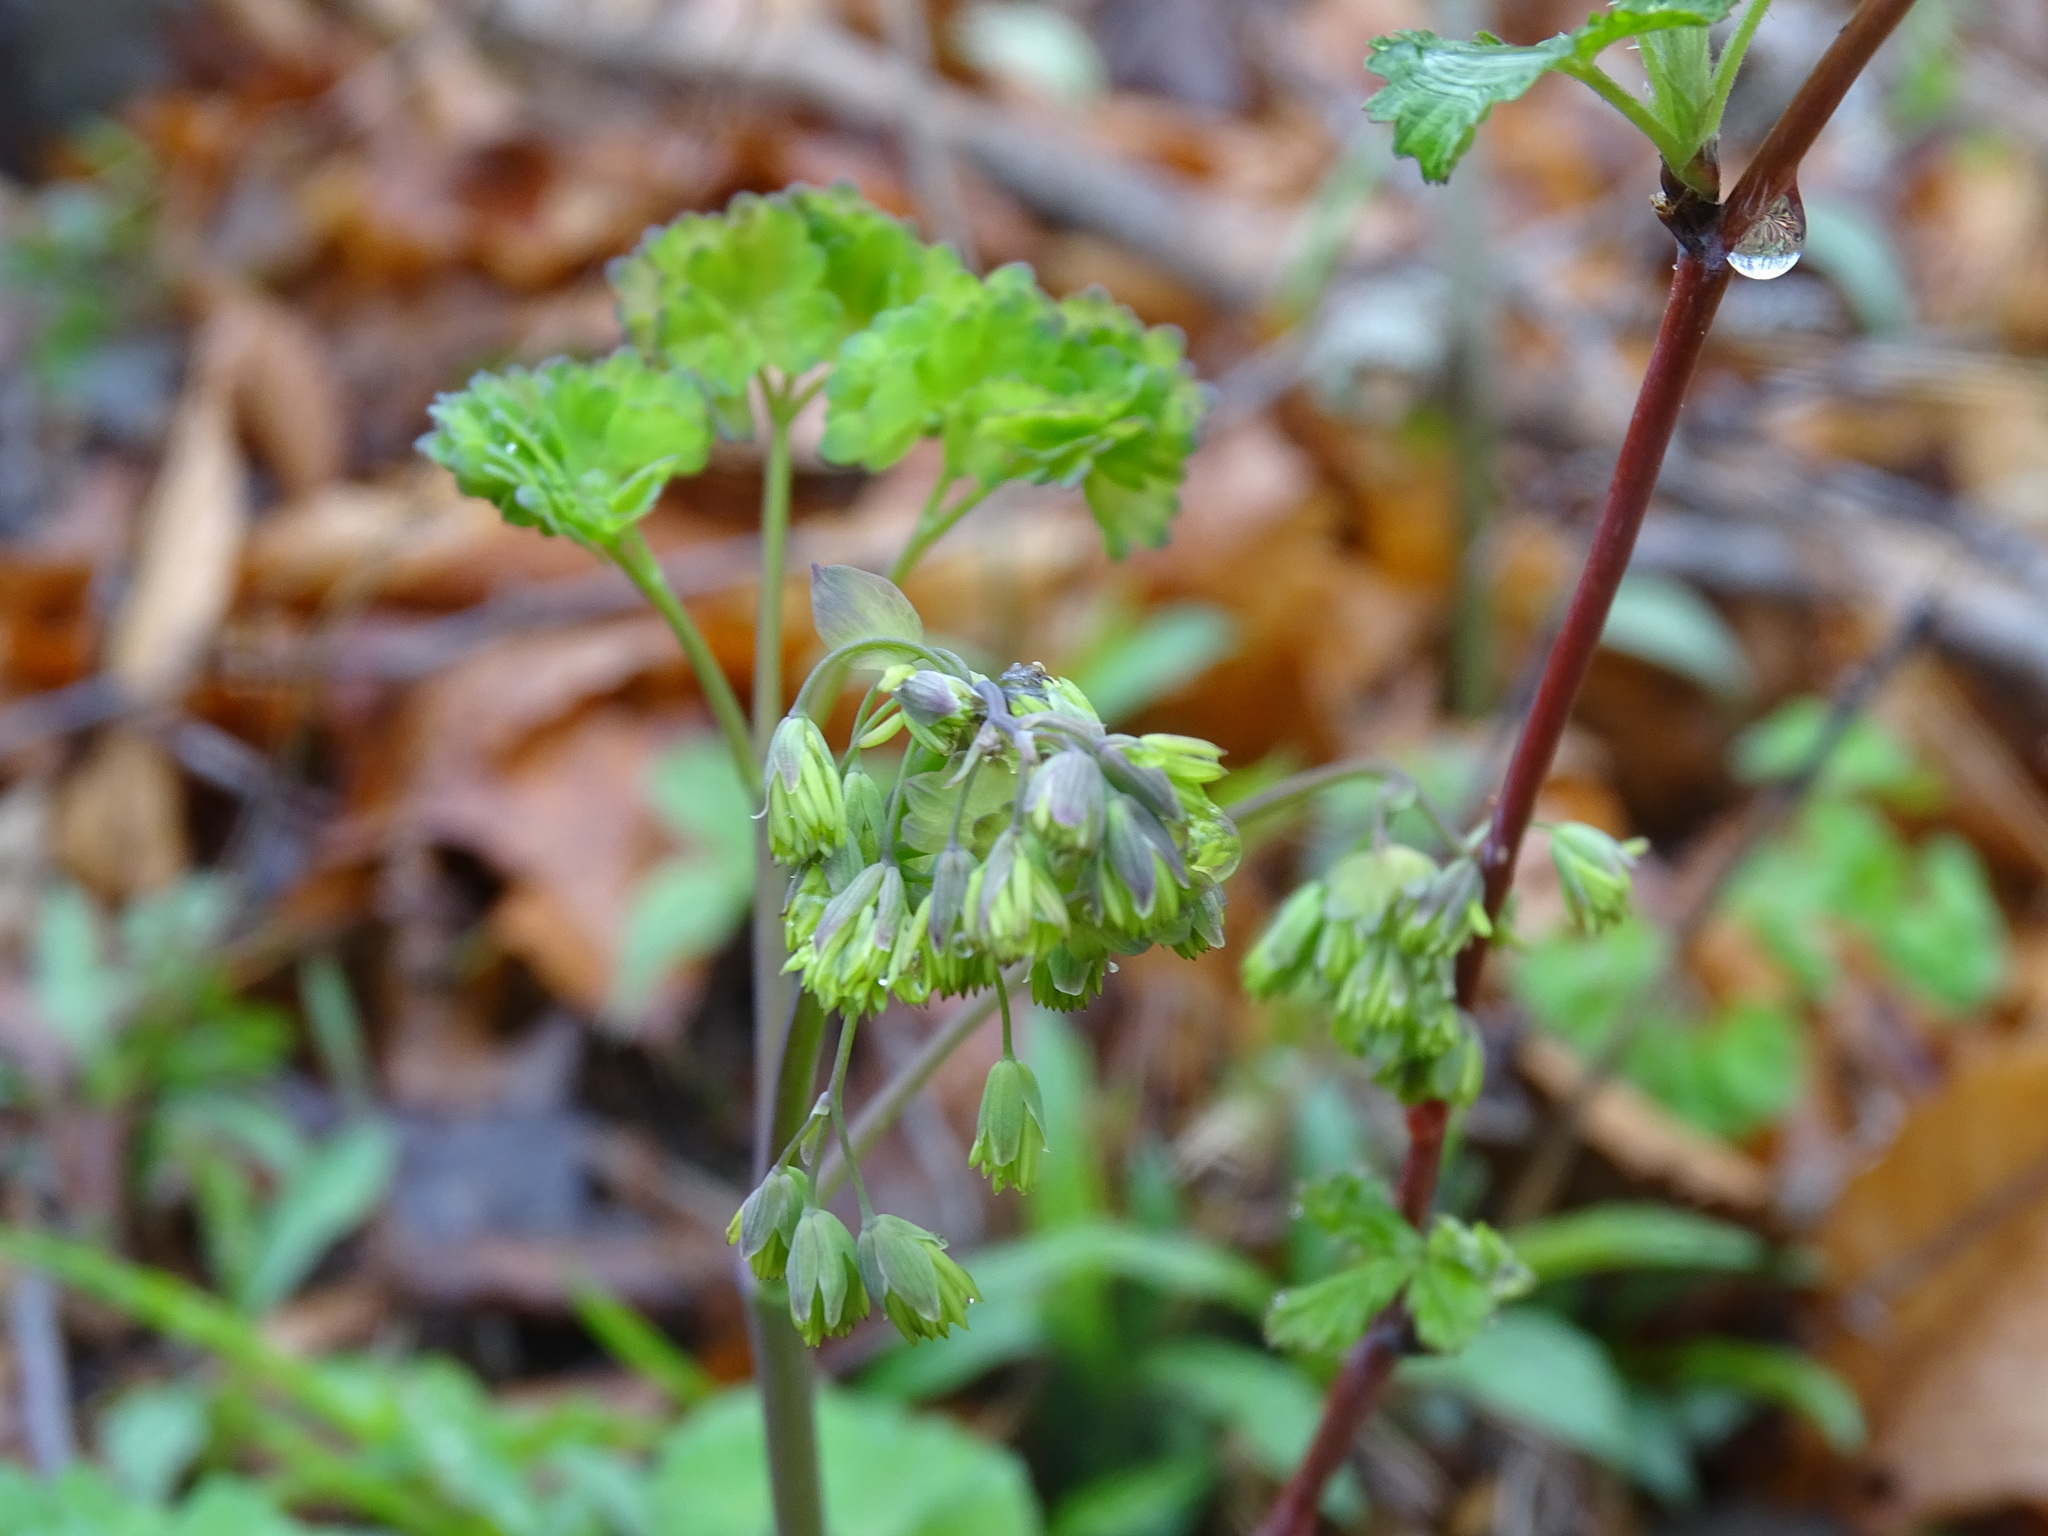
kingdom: Plantae
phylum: Tracheophyta
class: Magnoliopsida
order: Ranunculales
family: Ranunculaceae
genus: Thalictrum
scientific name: Thalictrum dioicum
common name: Early meadow-rue
